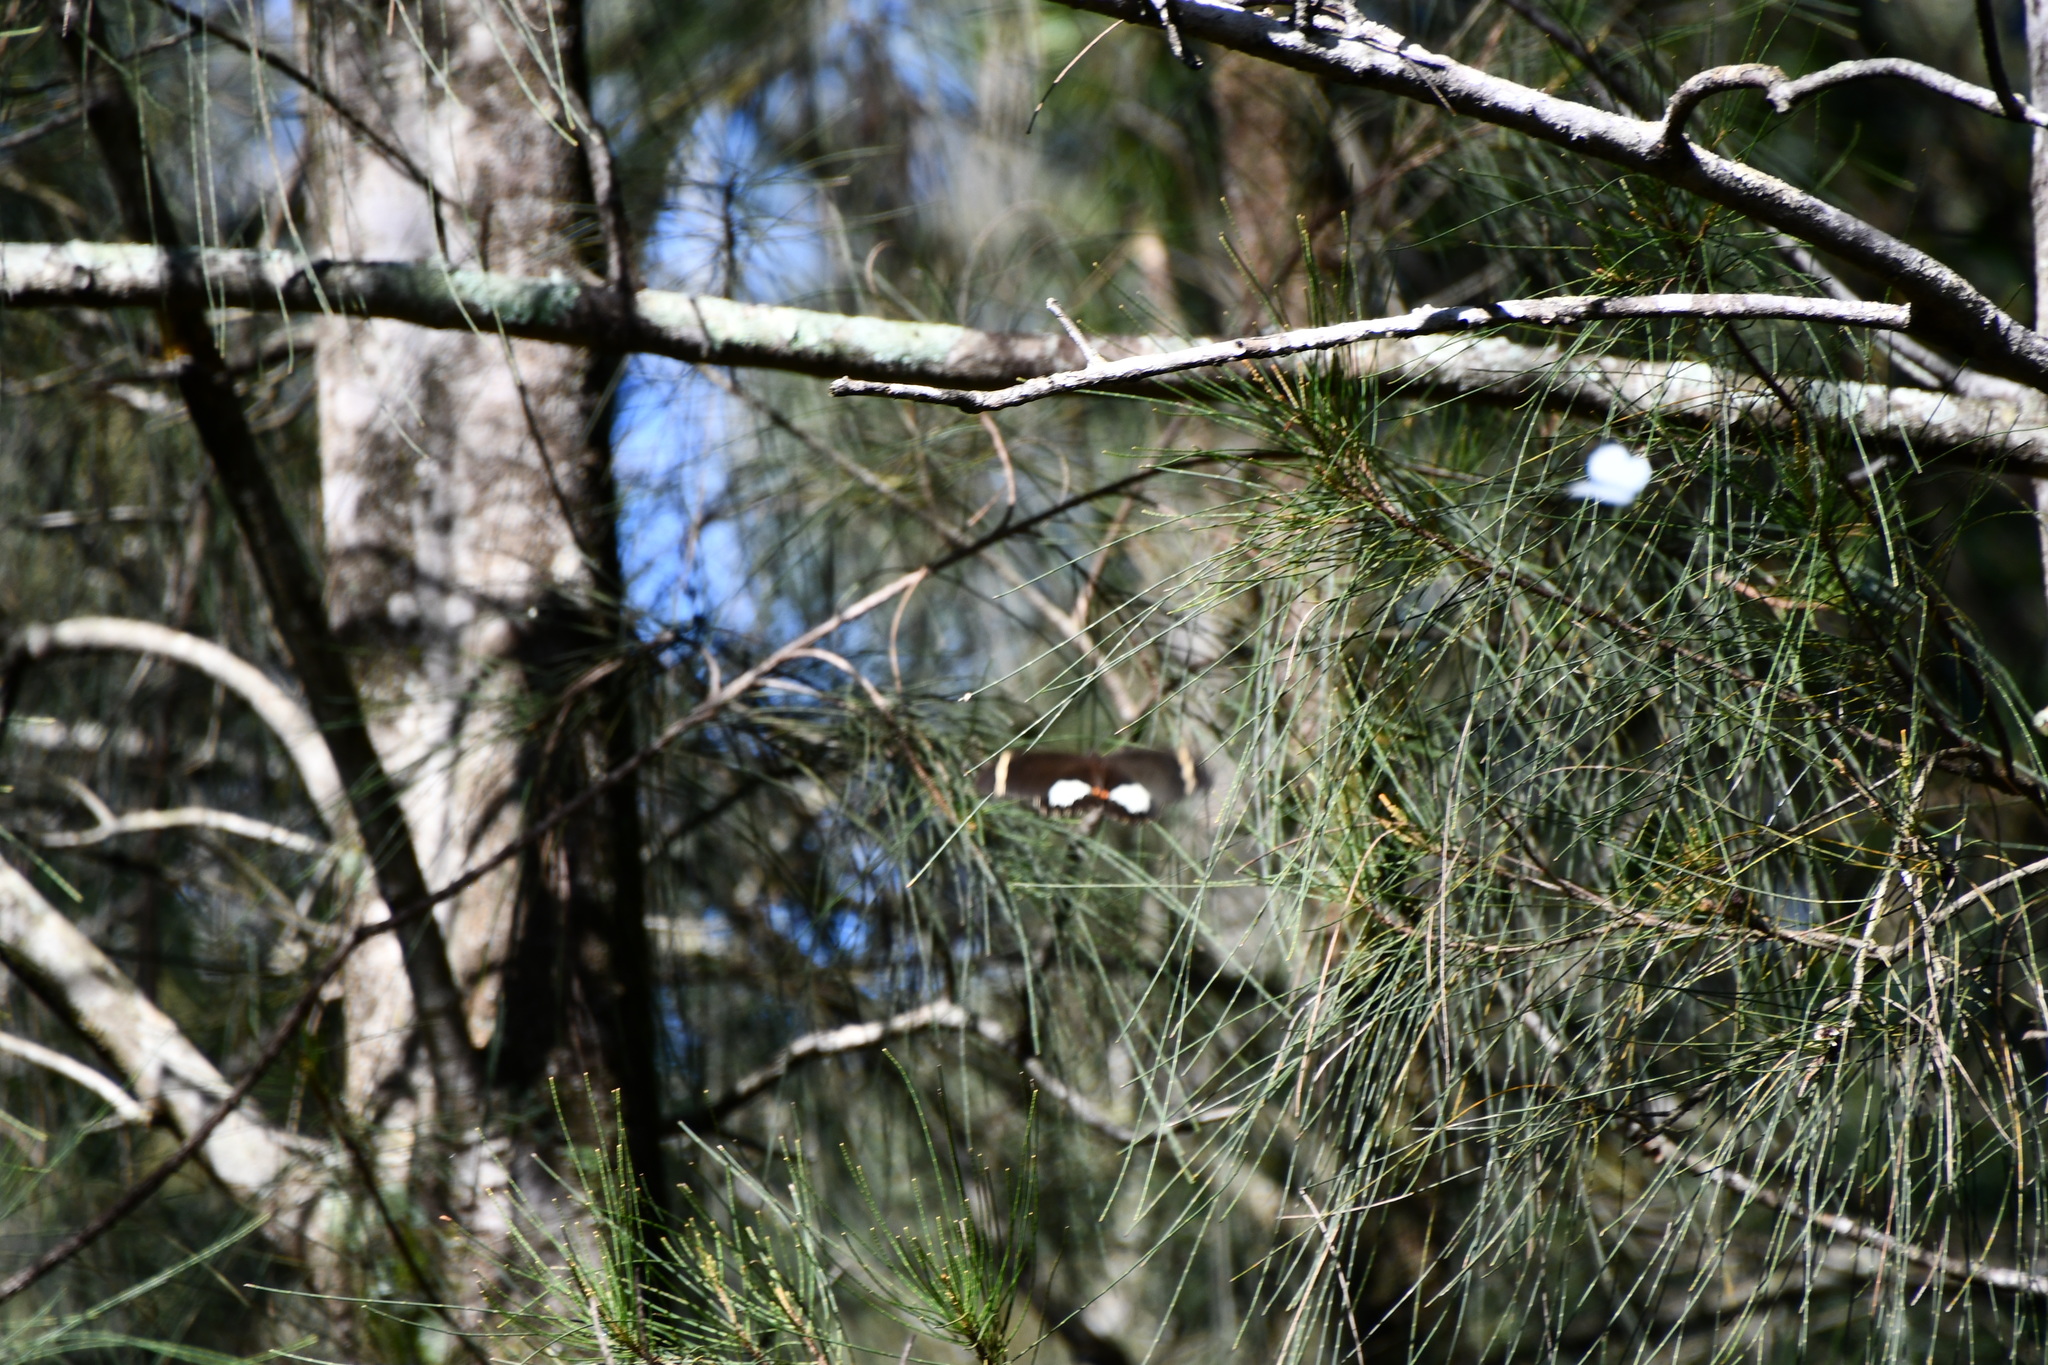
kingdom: Animalia
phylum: Arthropoda
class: Insecta
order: Lepidoptera
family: Papilionidae
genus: Papilio
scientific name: Papilio aegeus
